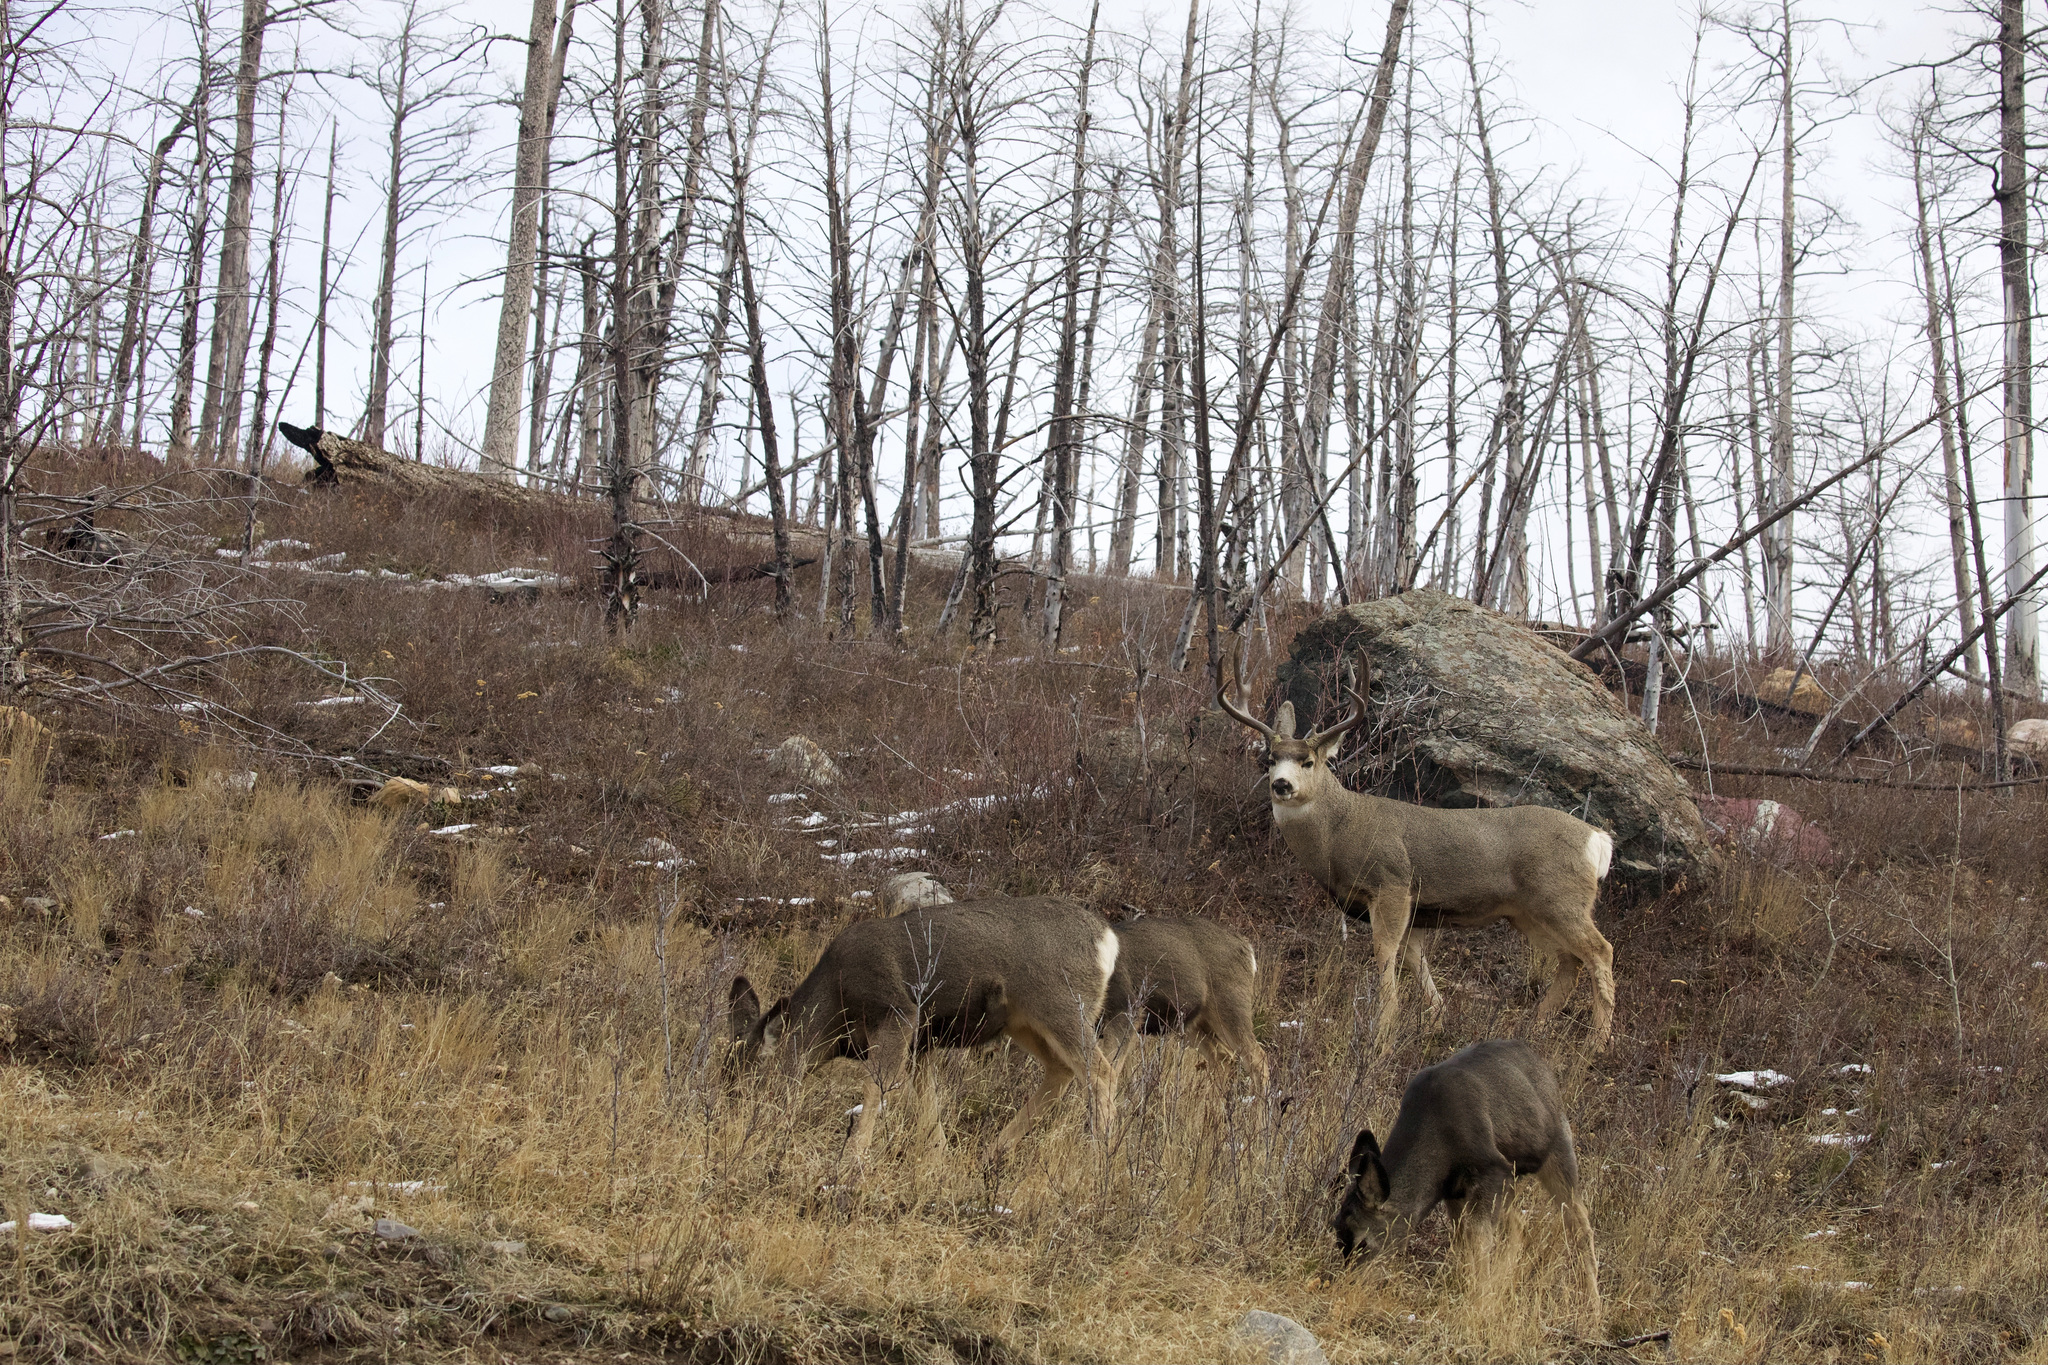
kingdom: Animalia
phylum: Chordata
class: Mammalia
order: Artiodactyla
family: Cervidae
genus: Odocoileus
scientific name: Odocoileus hemionus
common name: Mule deer
